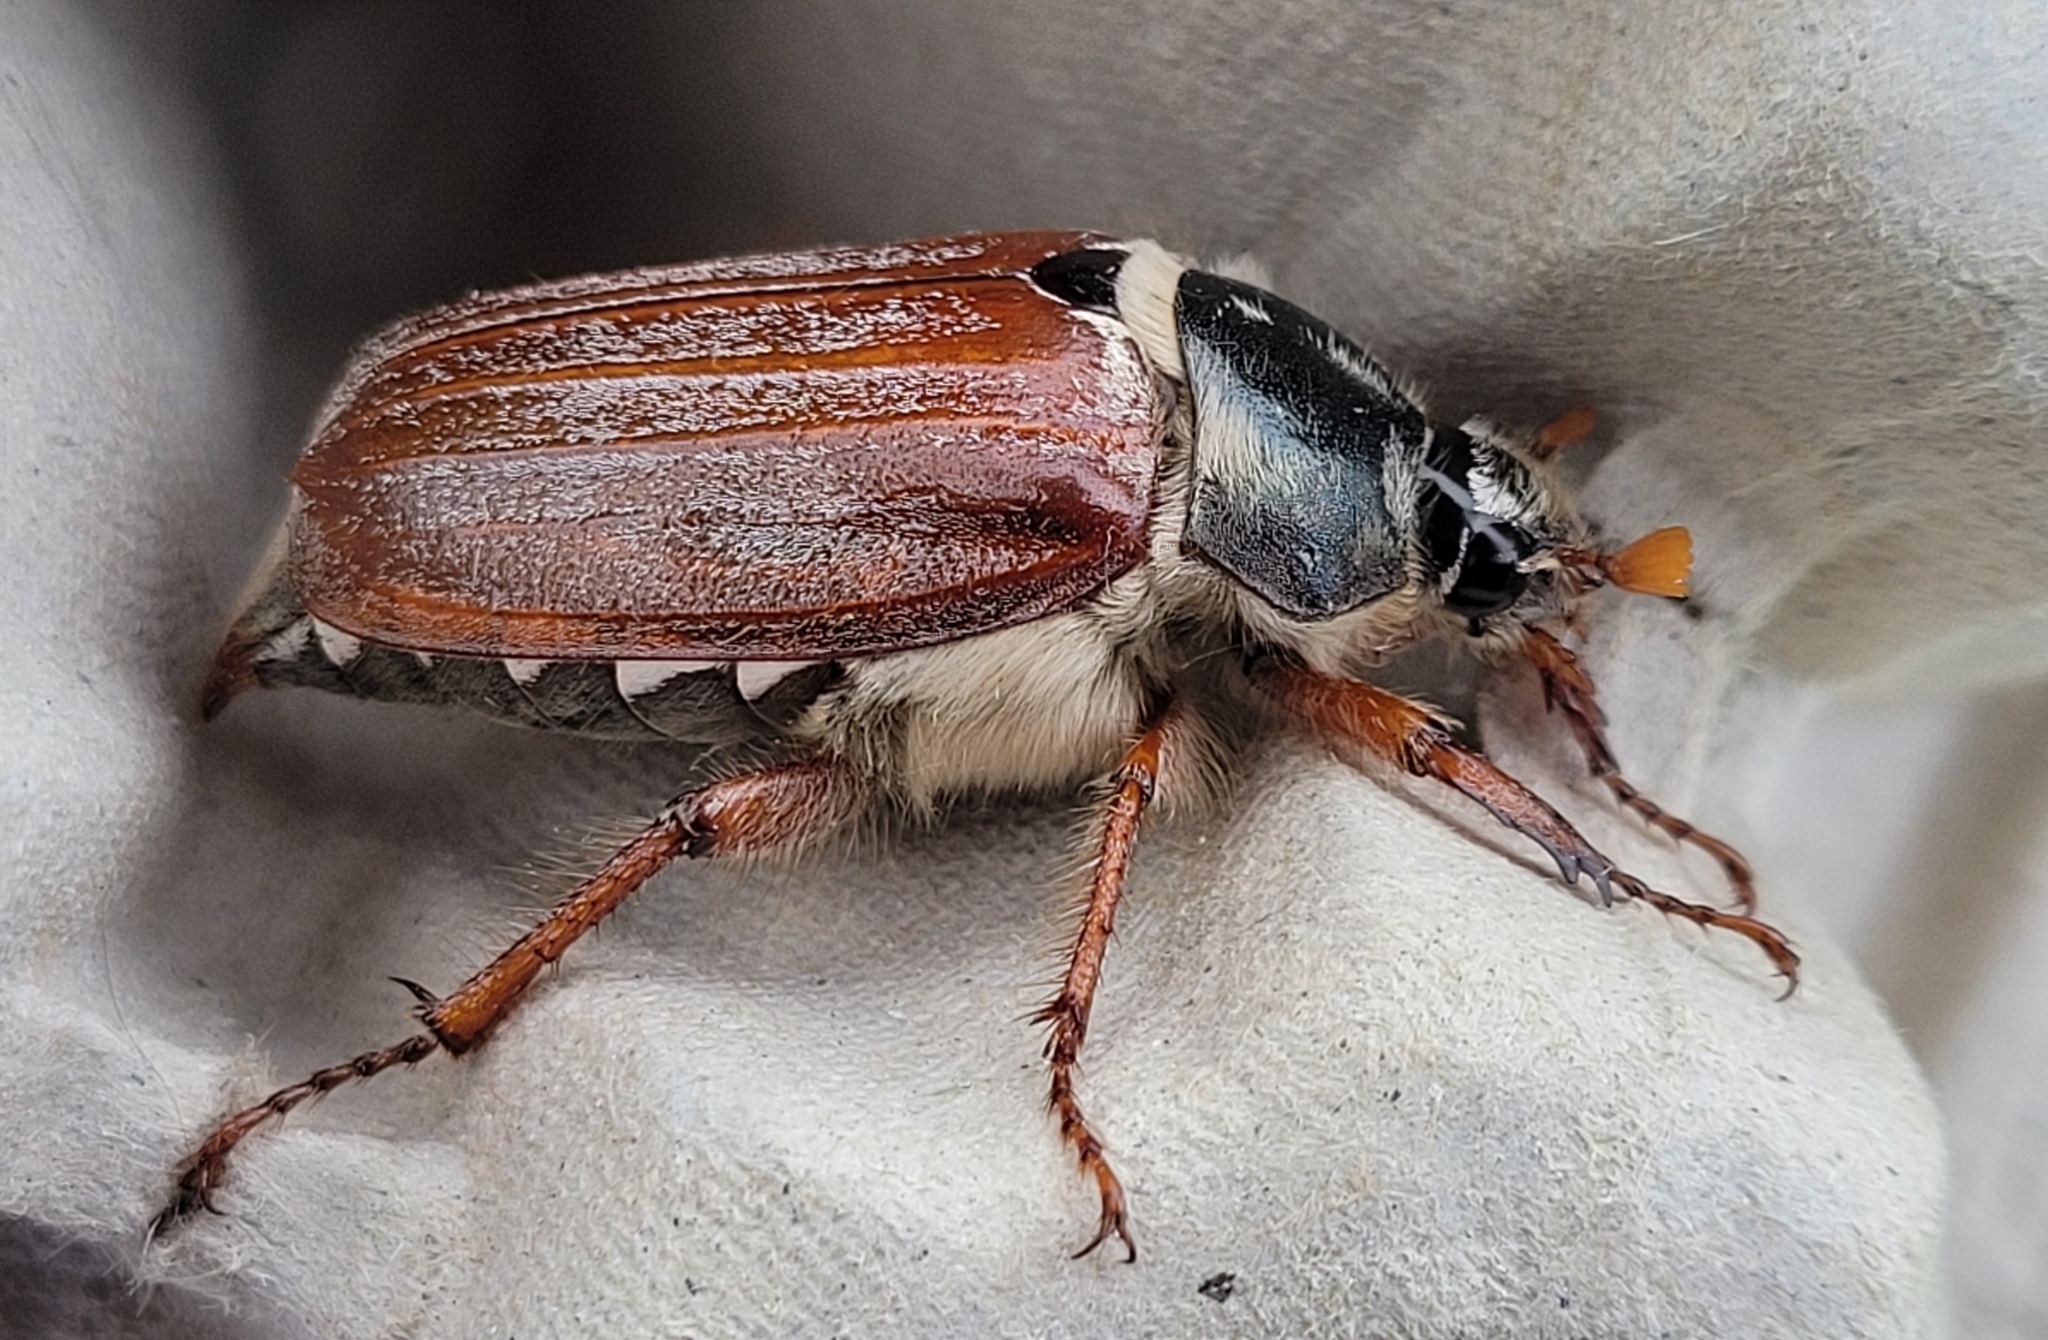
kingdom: Animalia
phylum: Arthropoda
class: Insecta
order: Coleoptera
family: Scarabaeidae
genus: Melolontha
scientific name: Melolontha melolontha
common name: Cockchafer maybeetle
